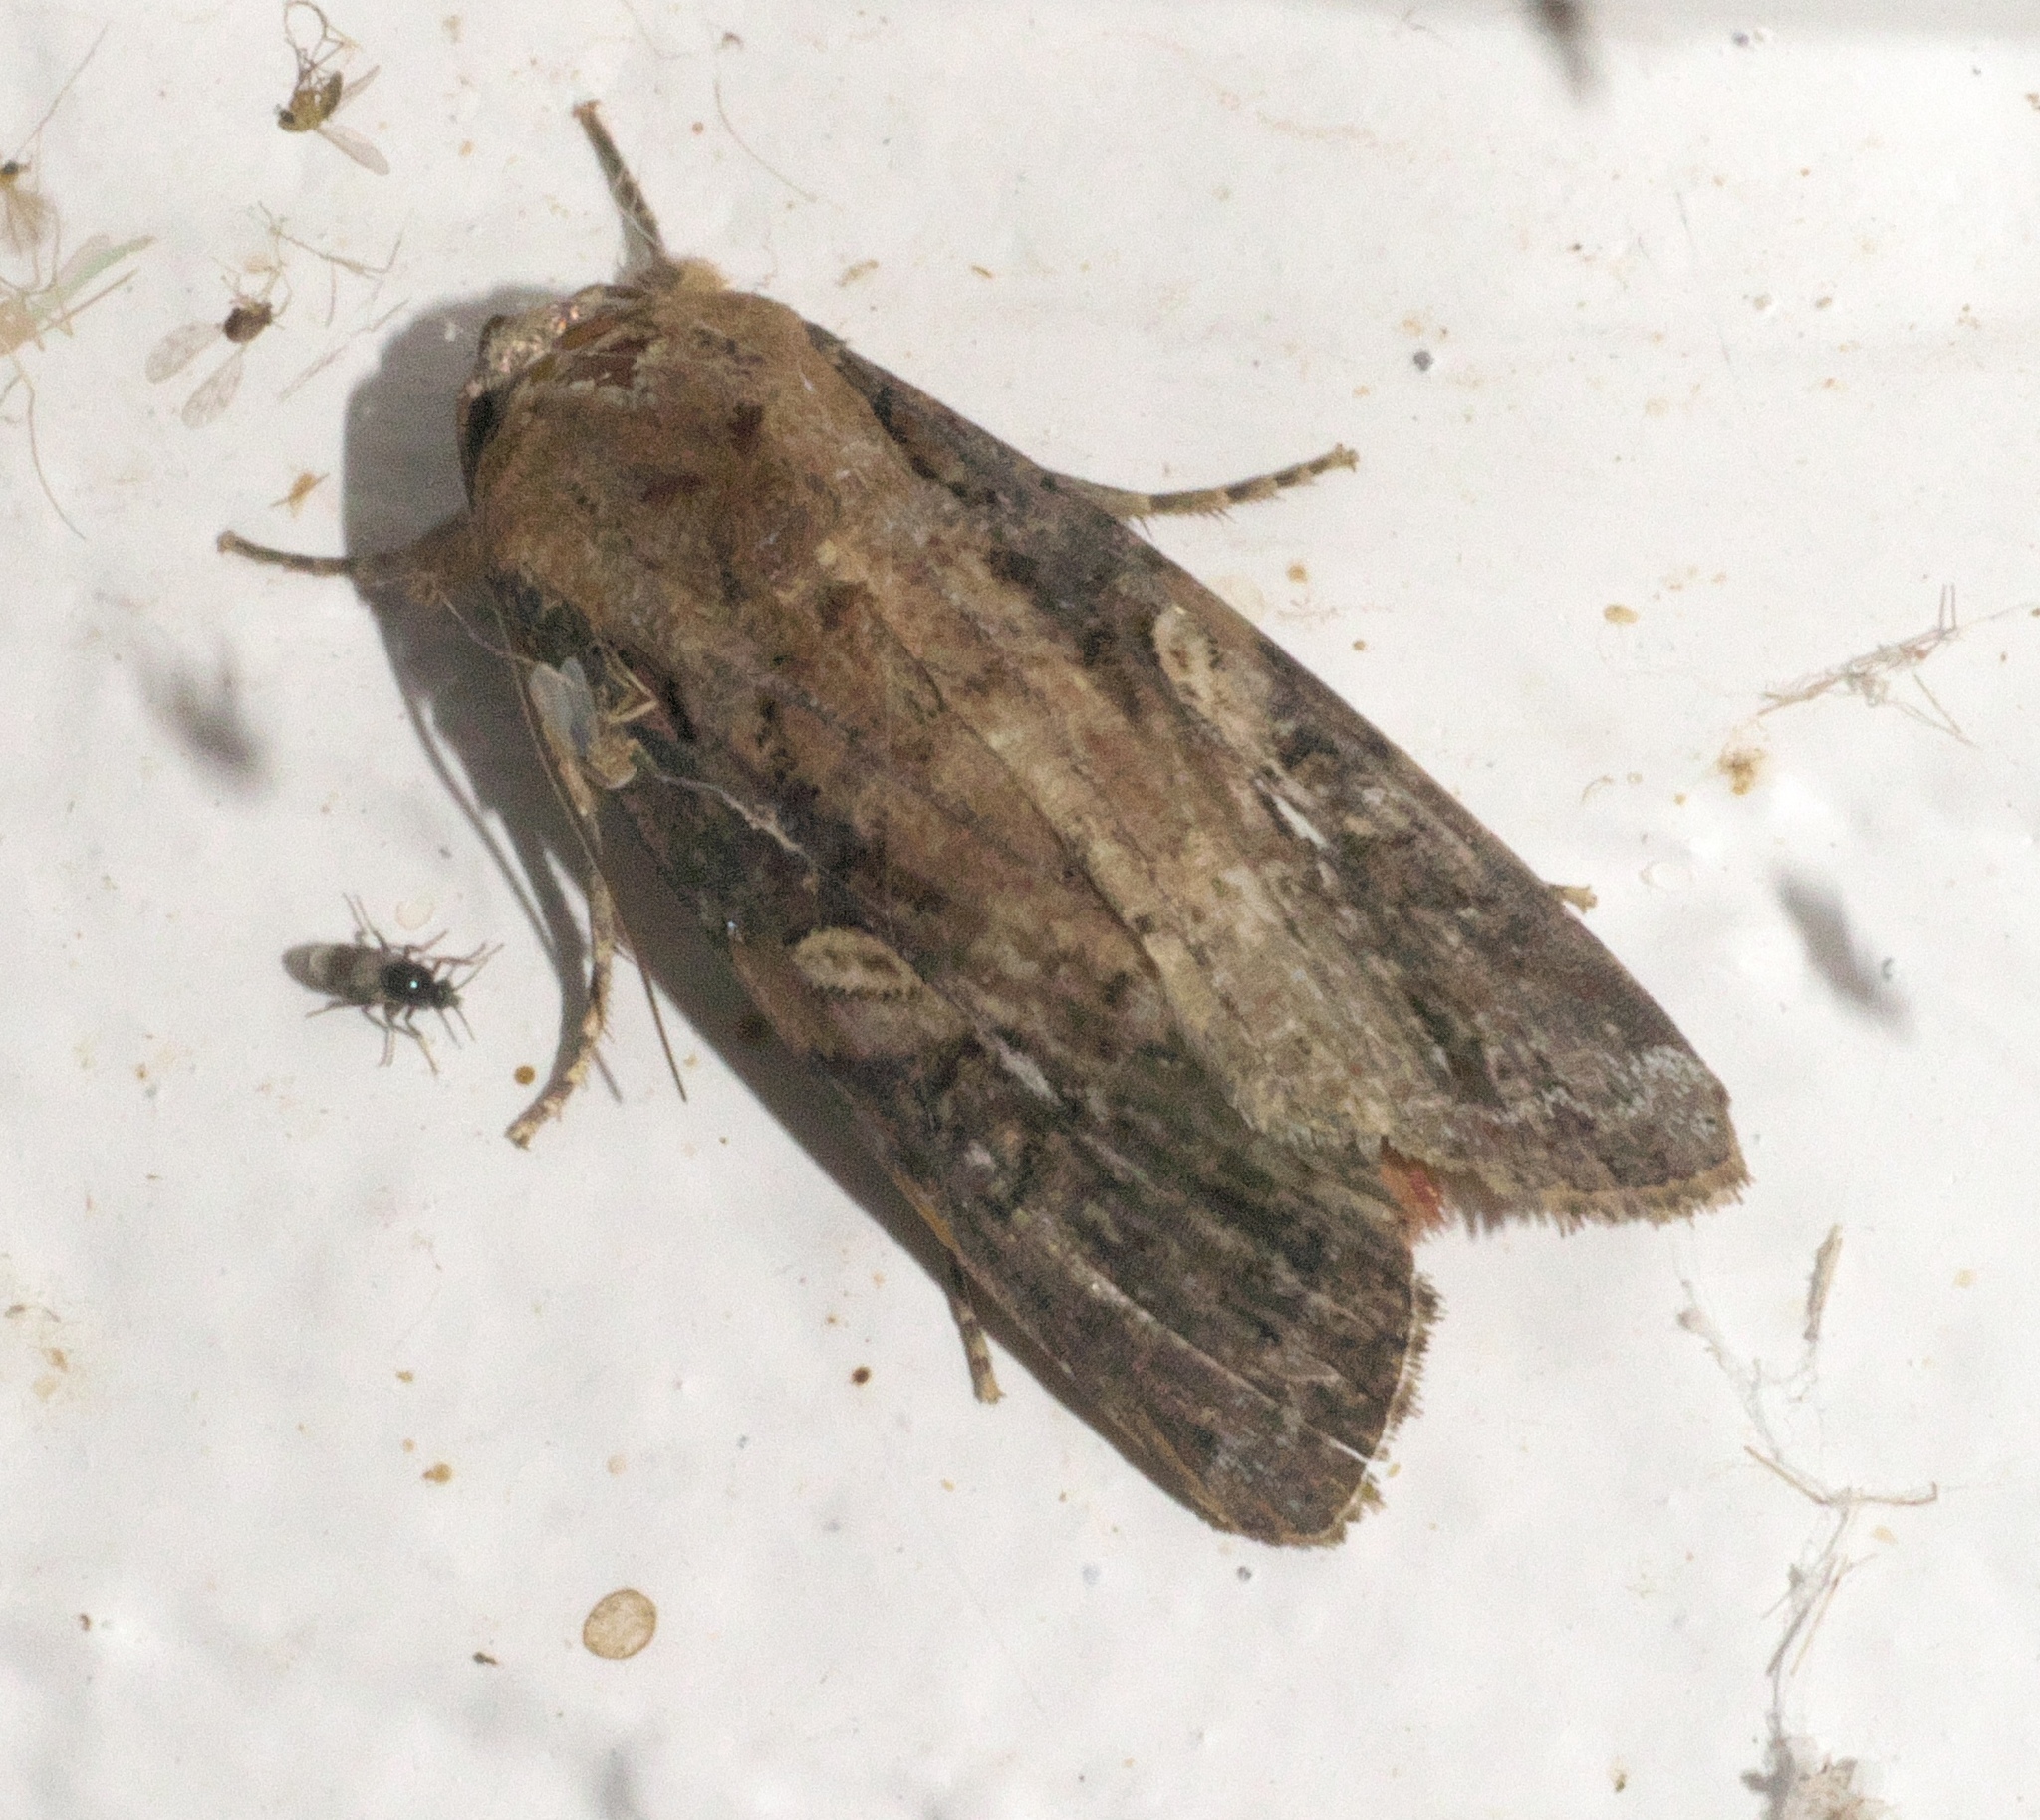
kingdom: Animalia
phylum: Arthropoda
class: Insecta
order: Lepidoptera
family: Noctuidae
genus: Spodoptera
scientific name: Spodoptera frugiperda
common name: Fall armyworm
